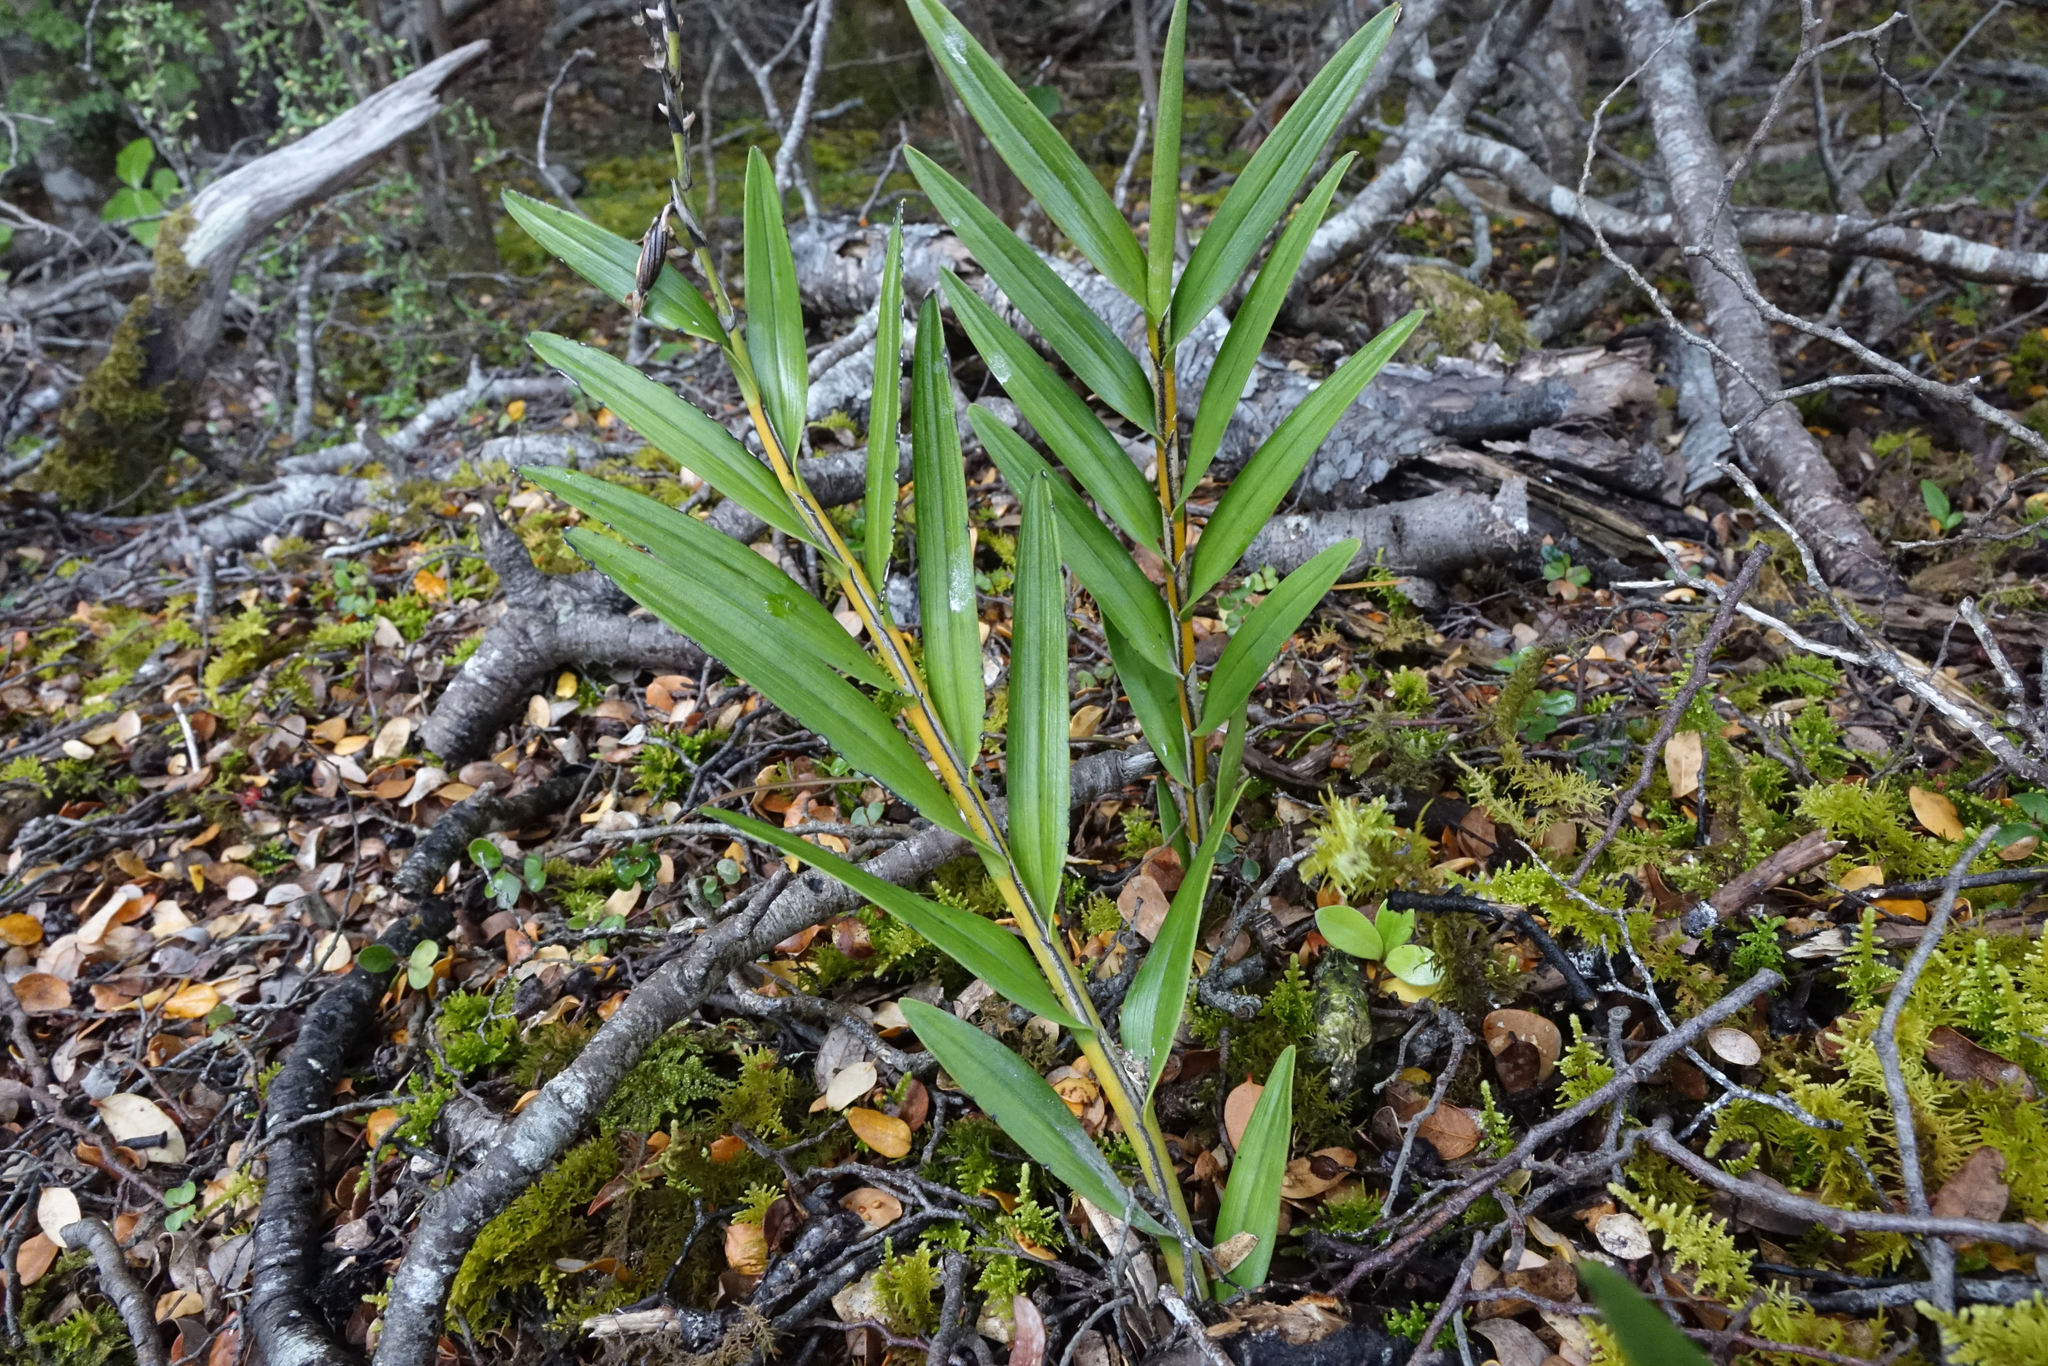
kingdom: Plantae
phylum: Tracheophyta
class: Liliopsida
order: Asparagales
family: Orchidaceae
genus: Earina
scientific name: Earina autumnalis
